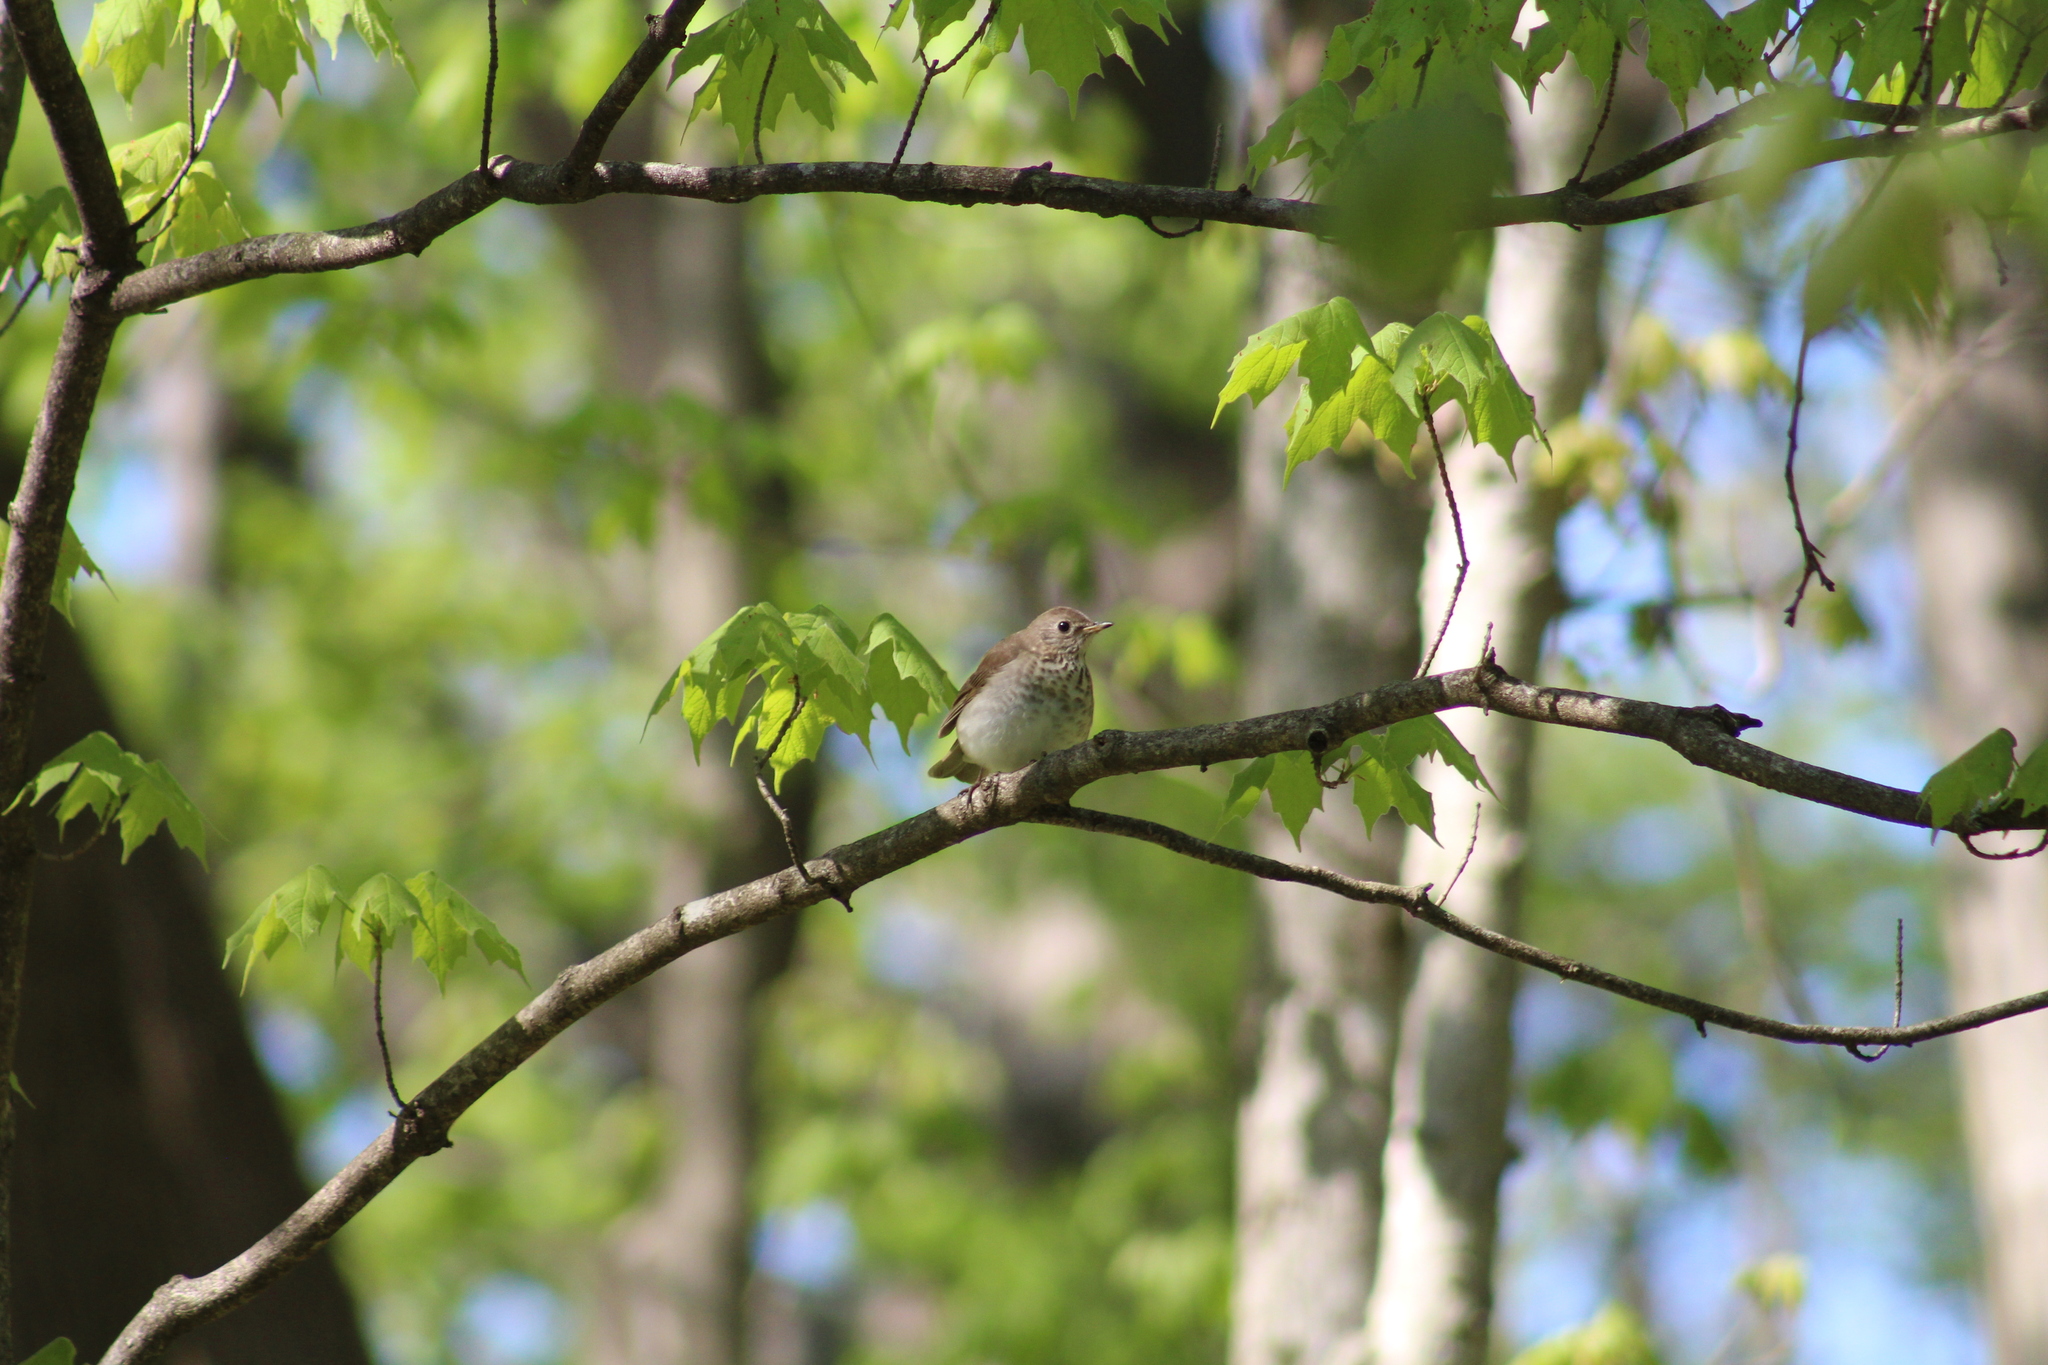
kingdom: Animalia
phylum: Chordata
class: Aves
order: Passeriformes
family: Turdidae
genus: Catharus
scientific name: Catharus minimus
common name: Grey-cheeked thrush
